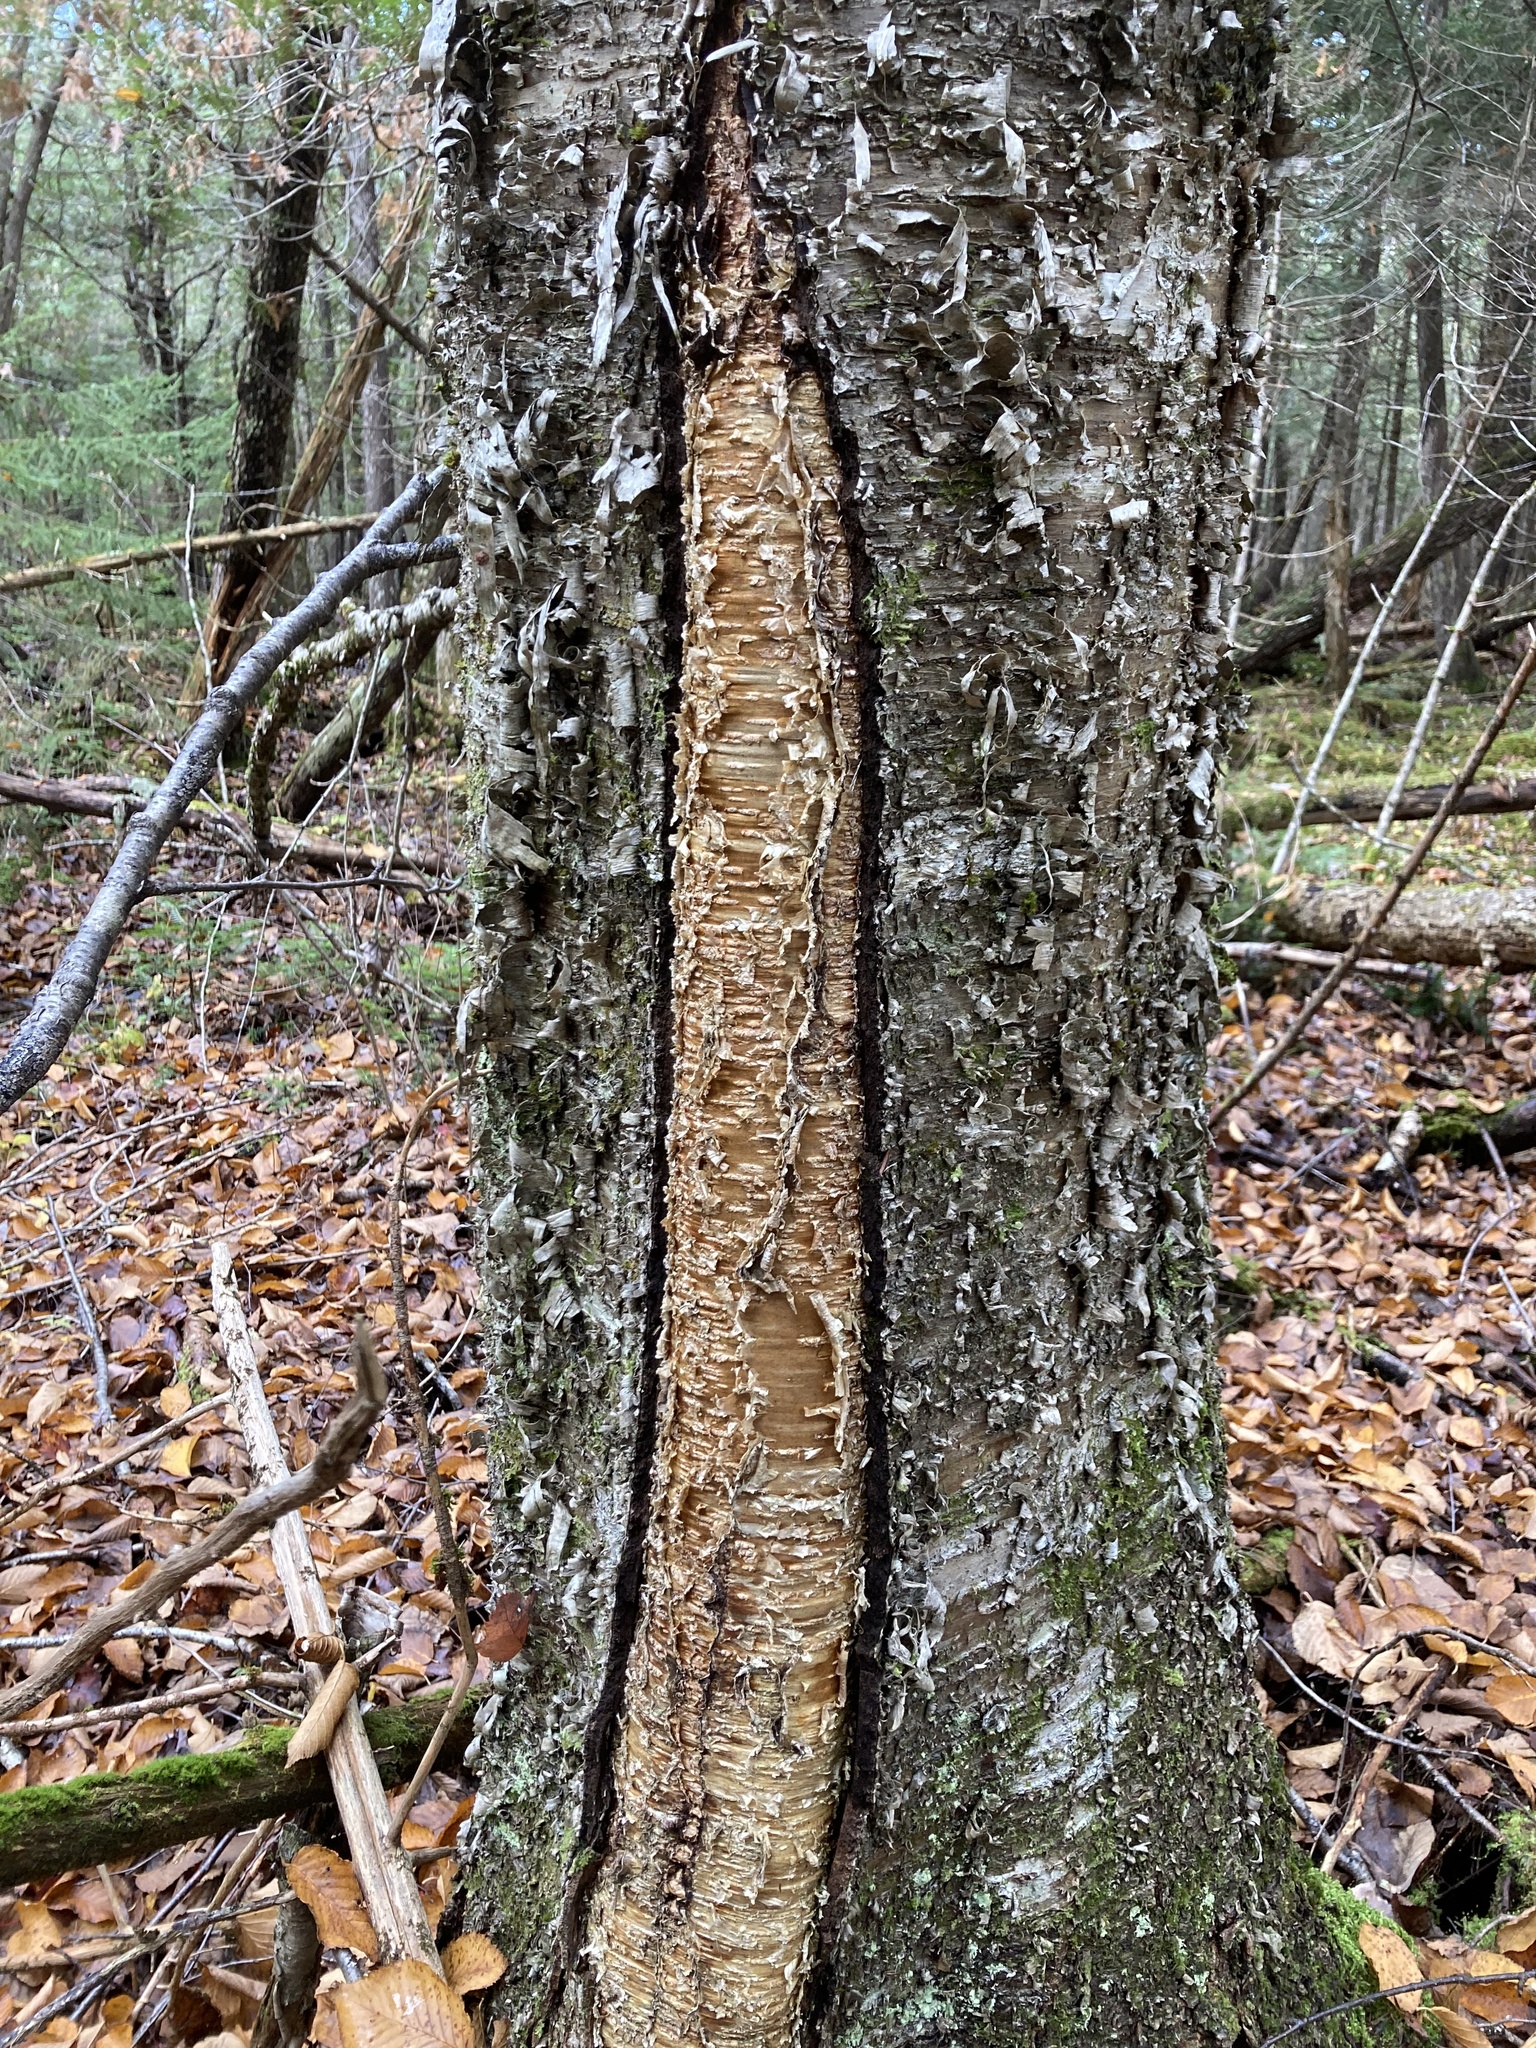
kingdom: Plantae
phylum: Tracheophyta
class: Magnoliopsida
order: Fagales
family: Betulaceae
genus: Betula
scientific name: Betula alleghaniensis
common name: Yellow birch
